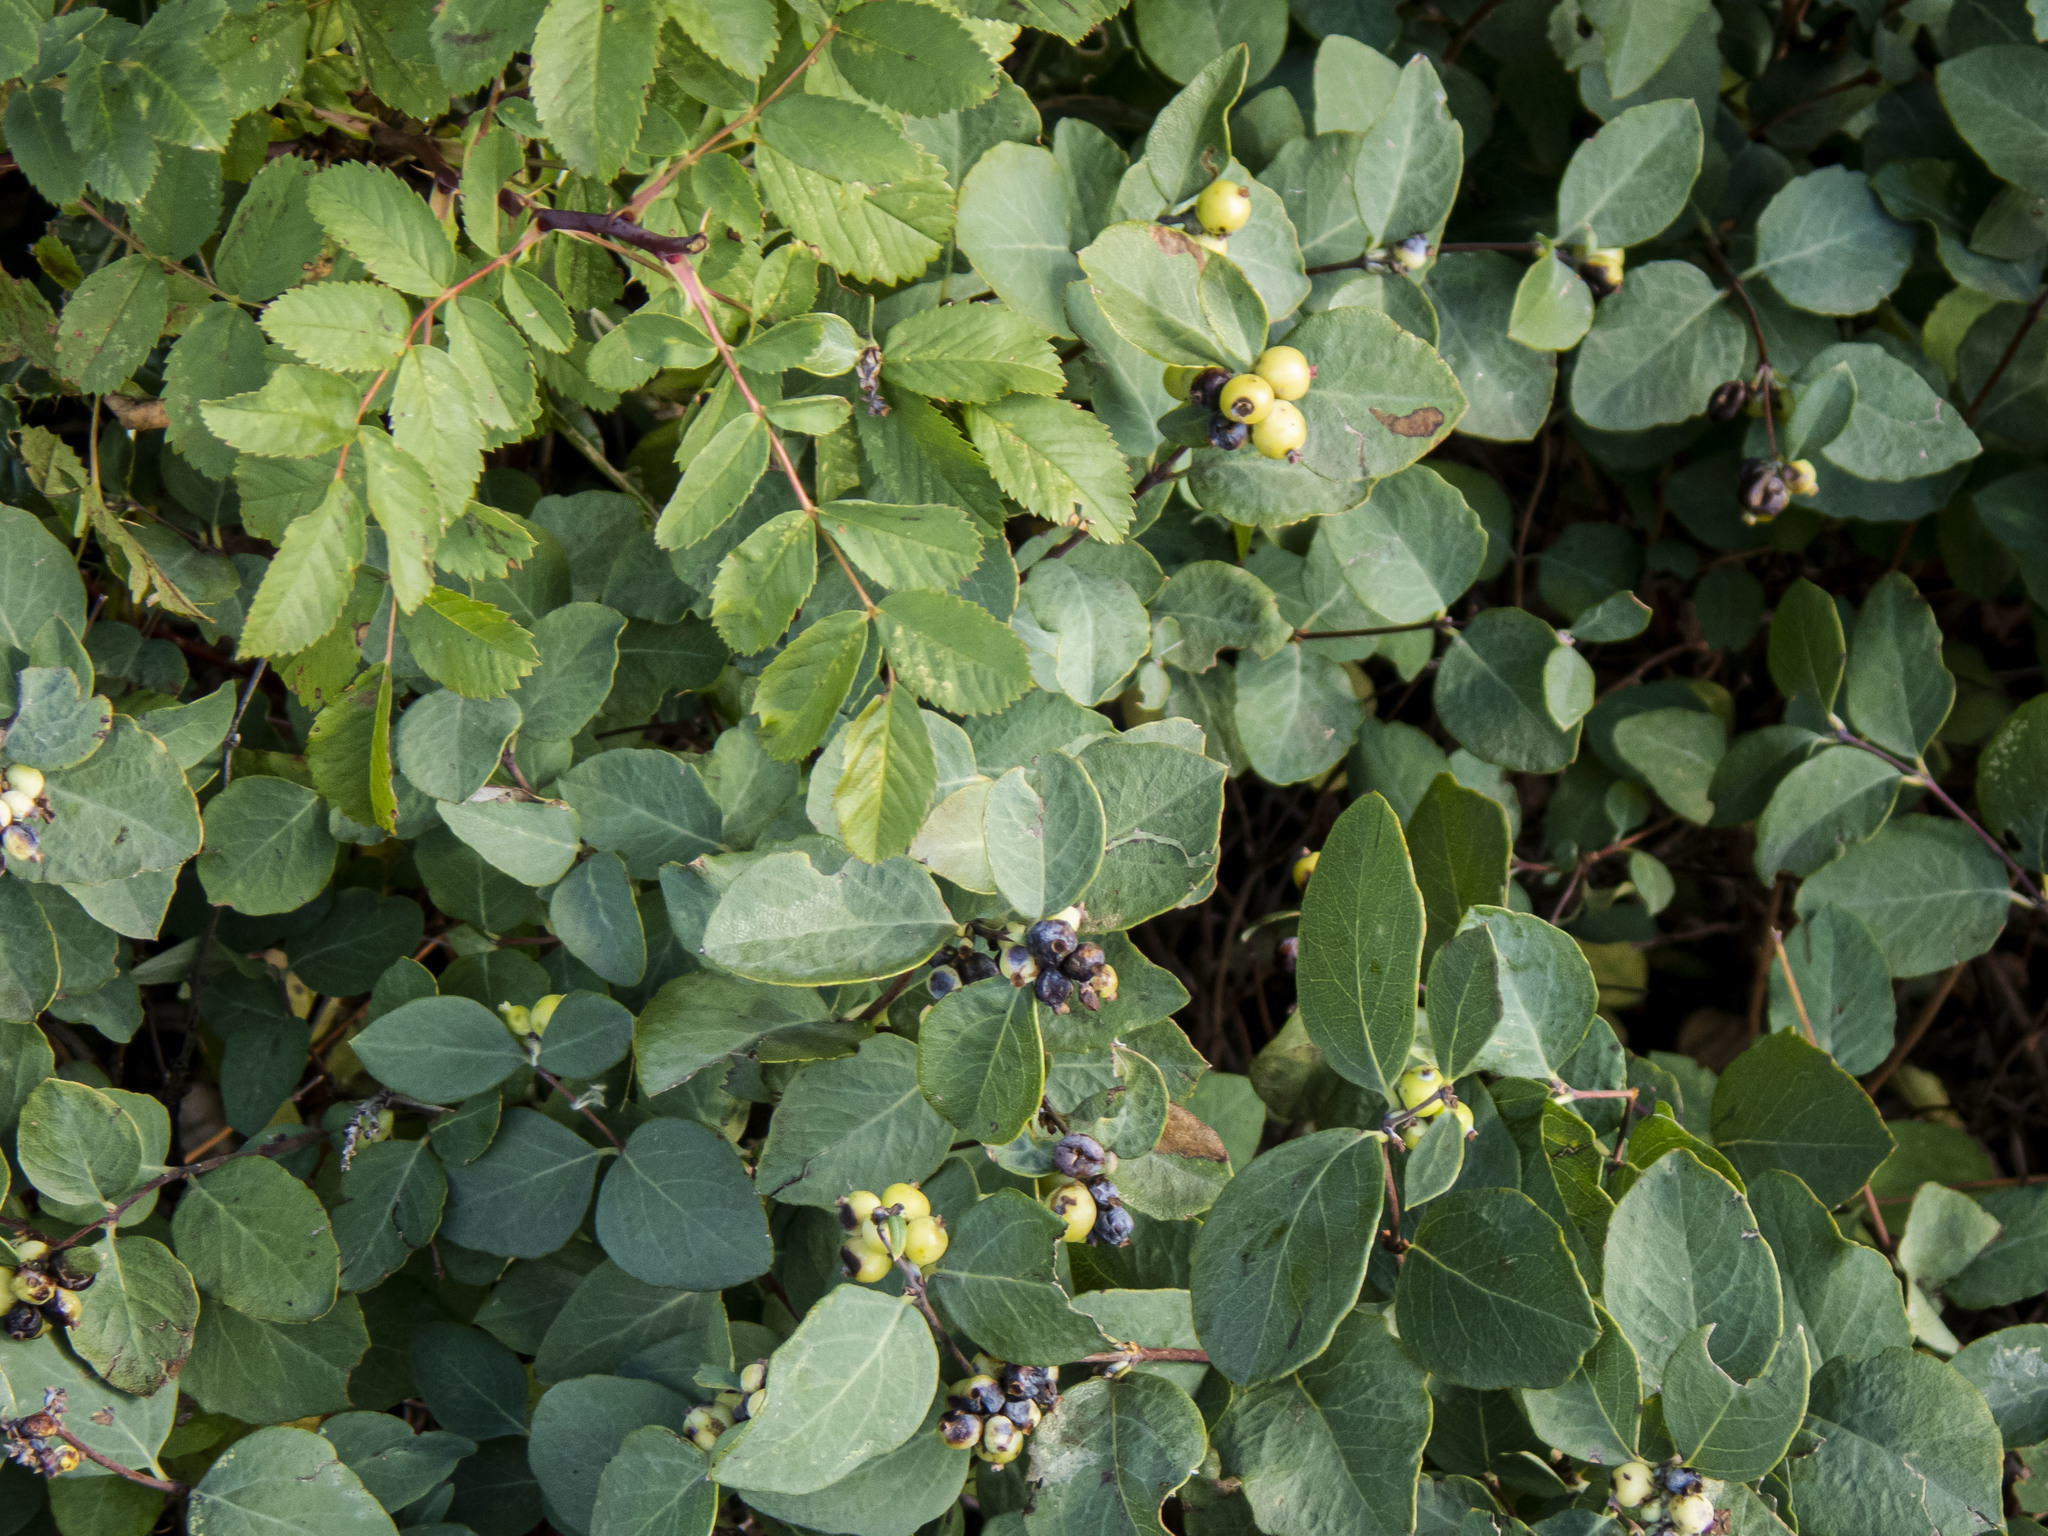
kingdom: Plantae
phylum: Tracheophyta
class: Magnoliopsida
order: Dipsacales
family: Caprifoliaceae
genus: Symphoricarpos
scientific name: Symphoricarpos occidentalis
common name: Wolfberry
